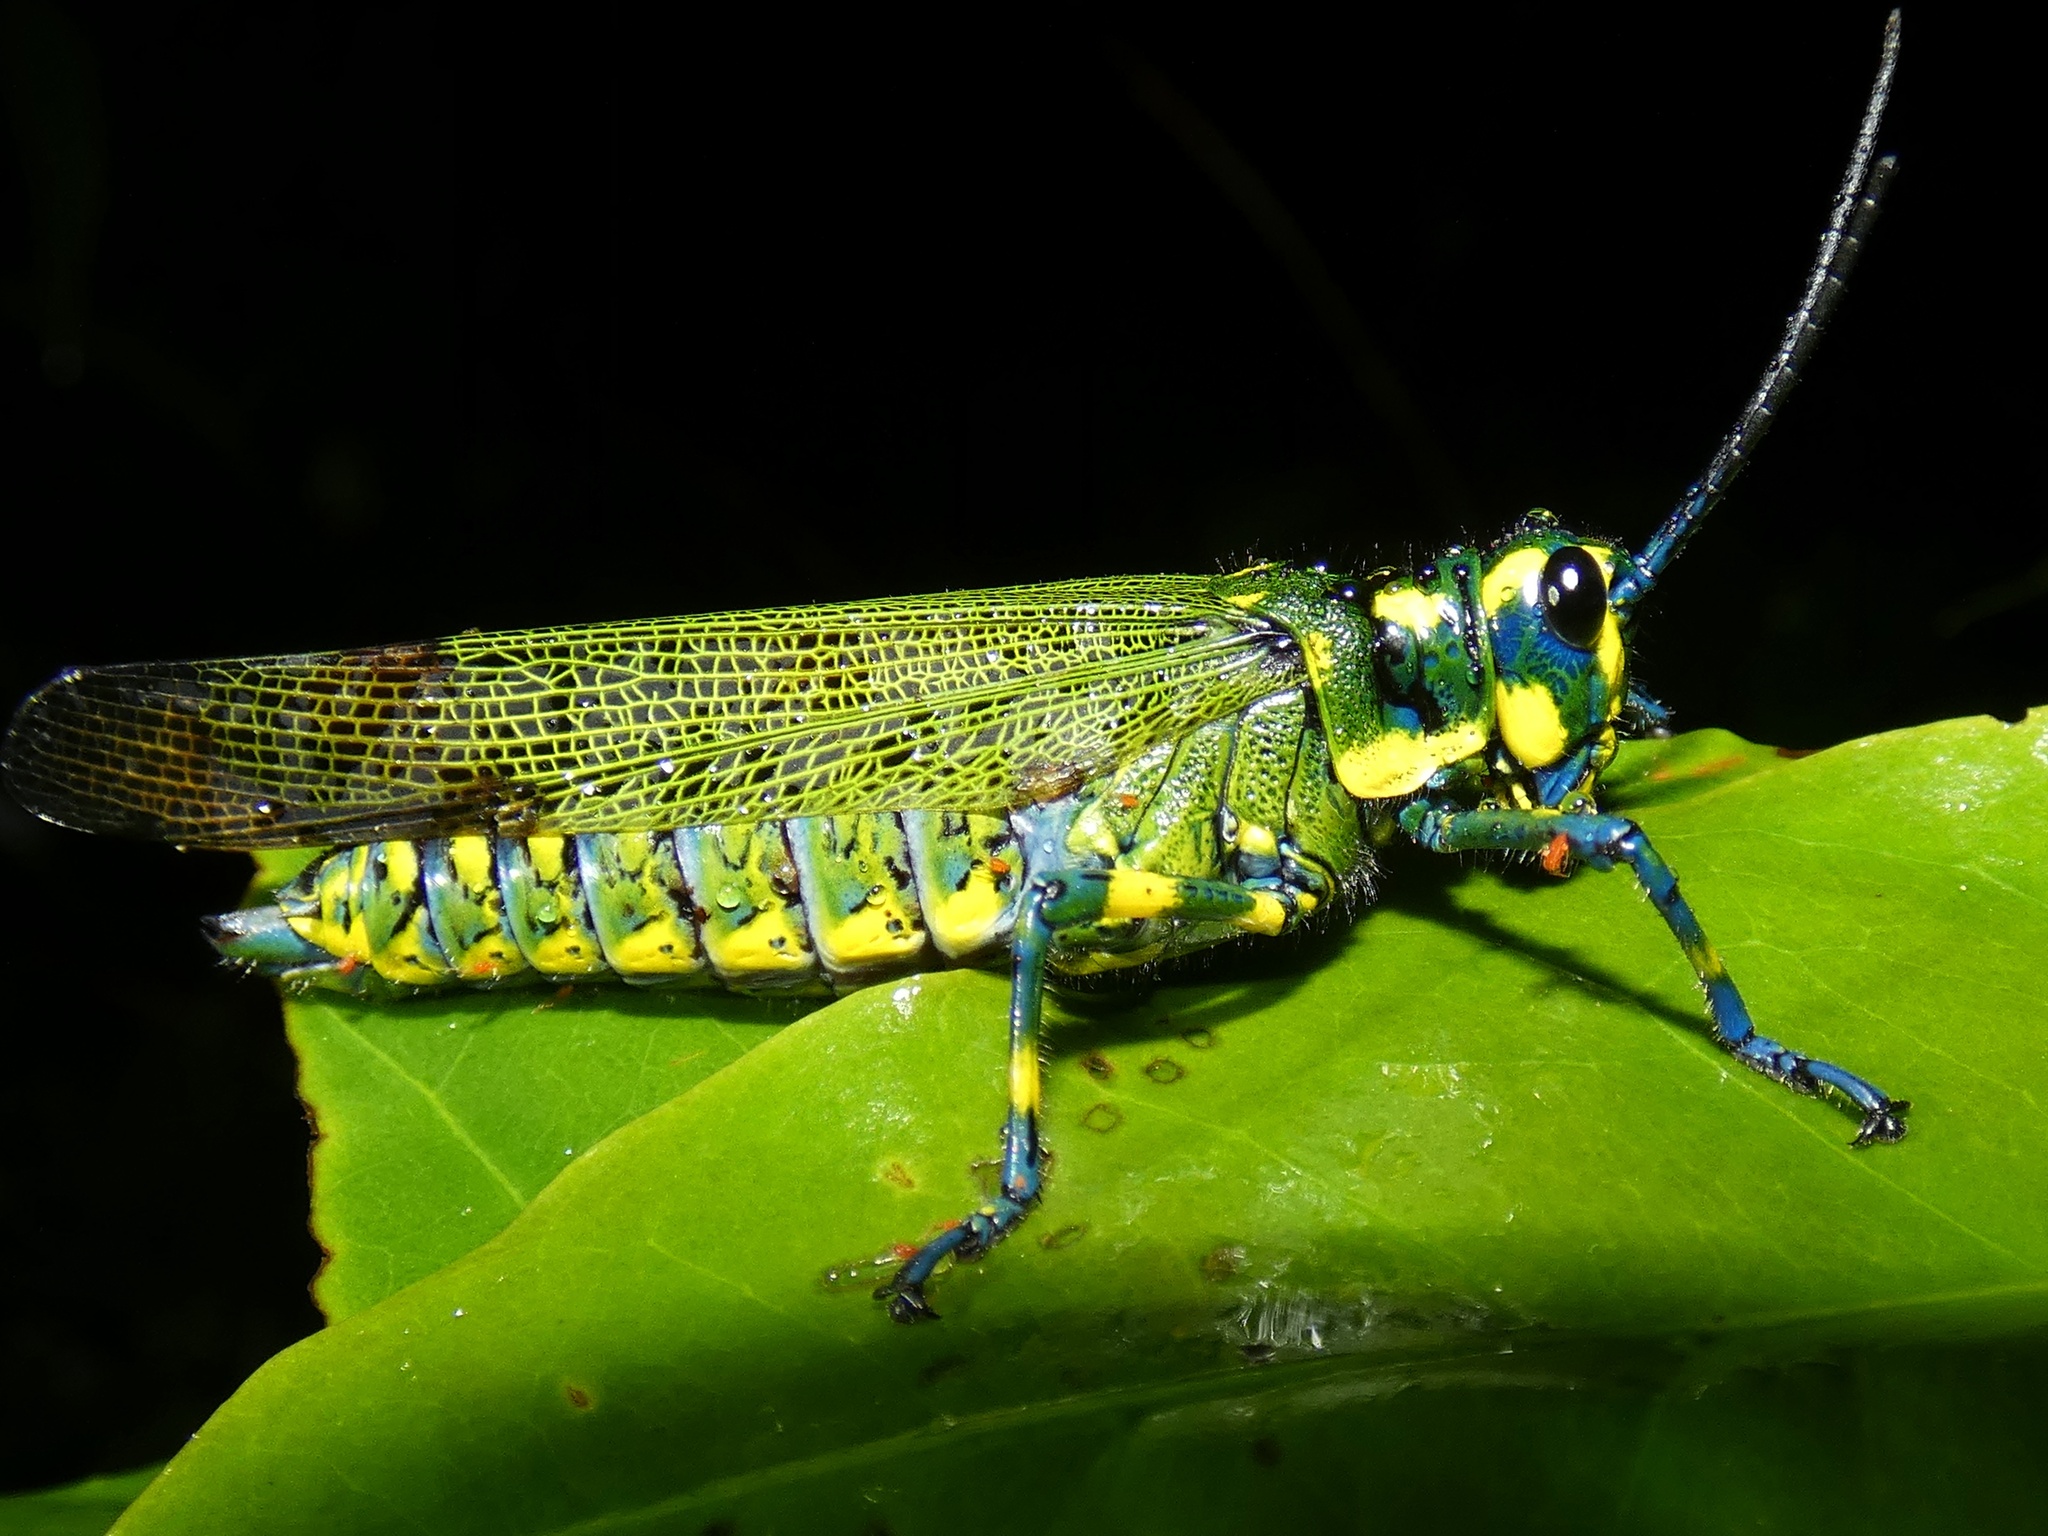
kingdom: Animalia
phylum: Arthropoda
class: Insecta
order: Orthoptera
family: Romaleidae
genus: Chromacris
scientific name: Chromacris psittacus
